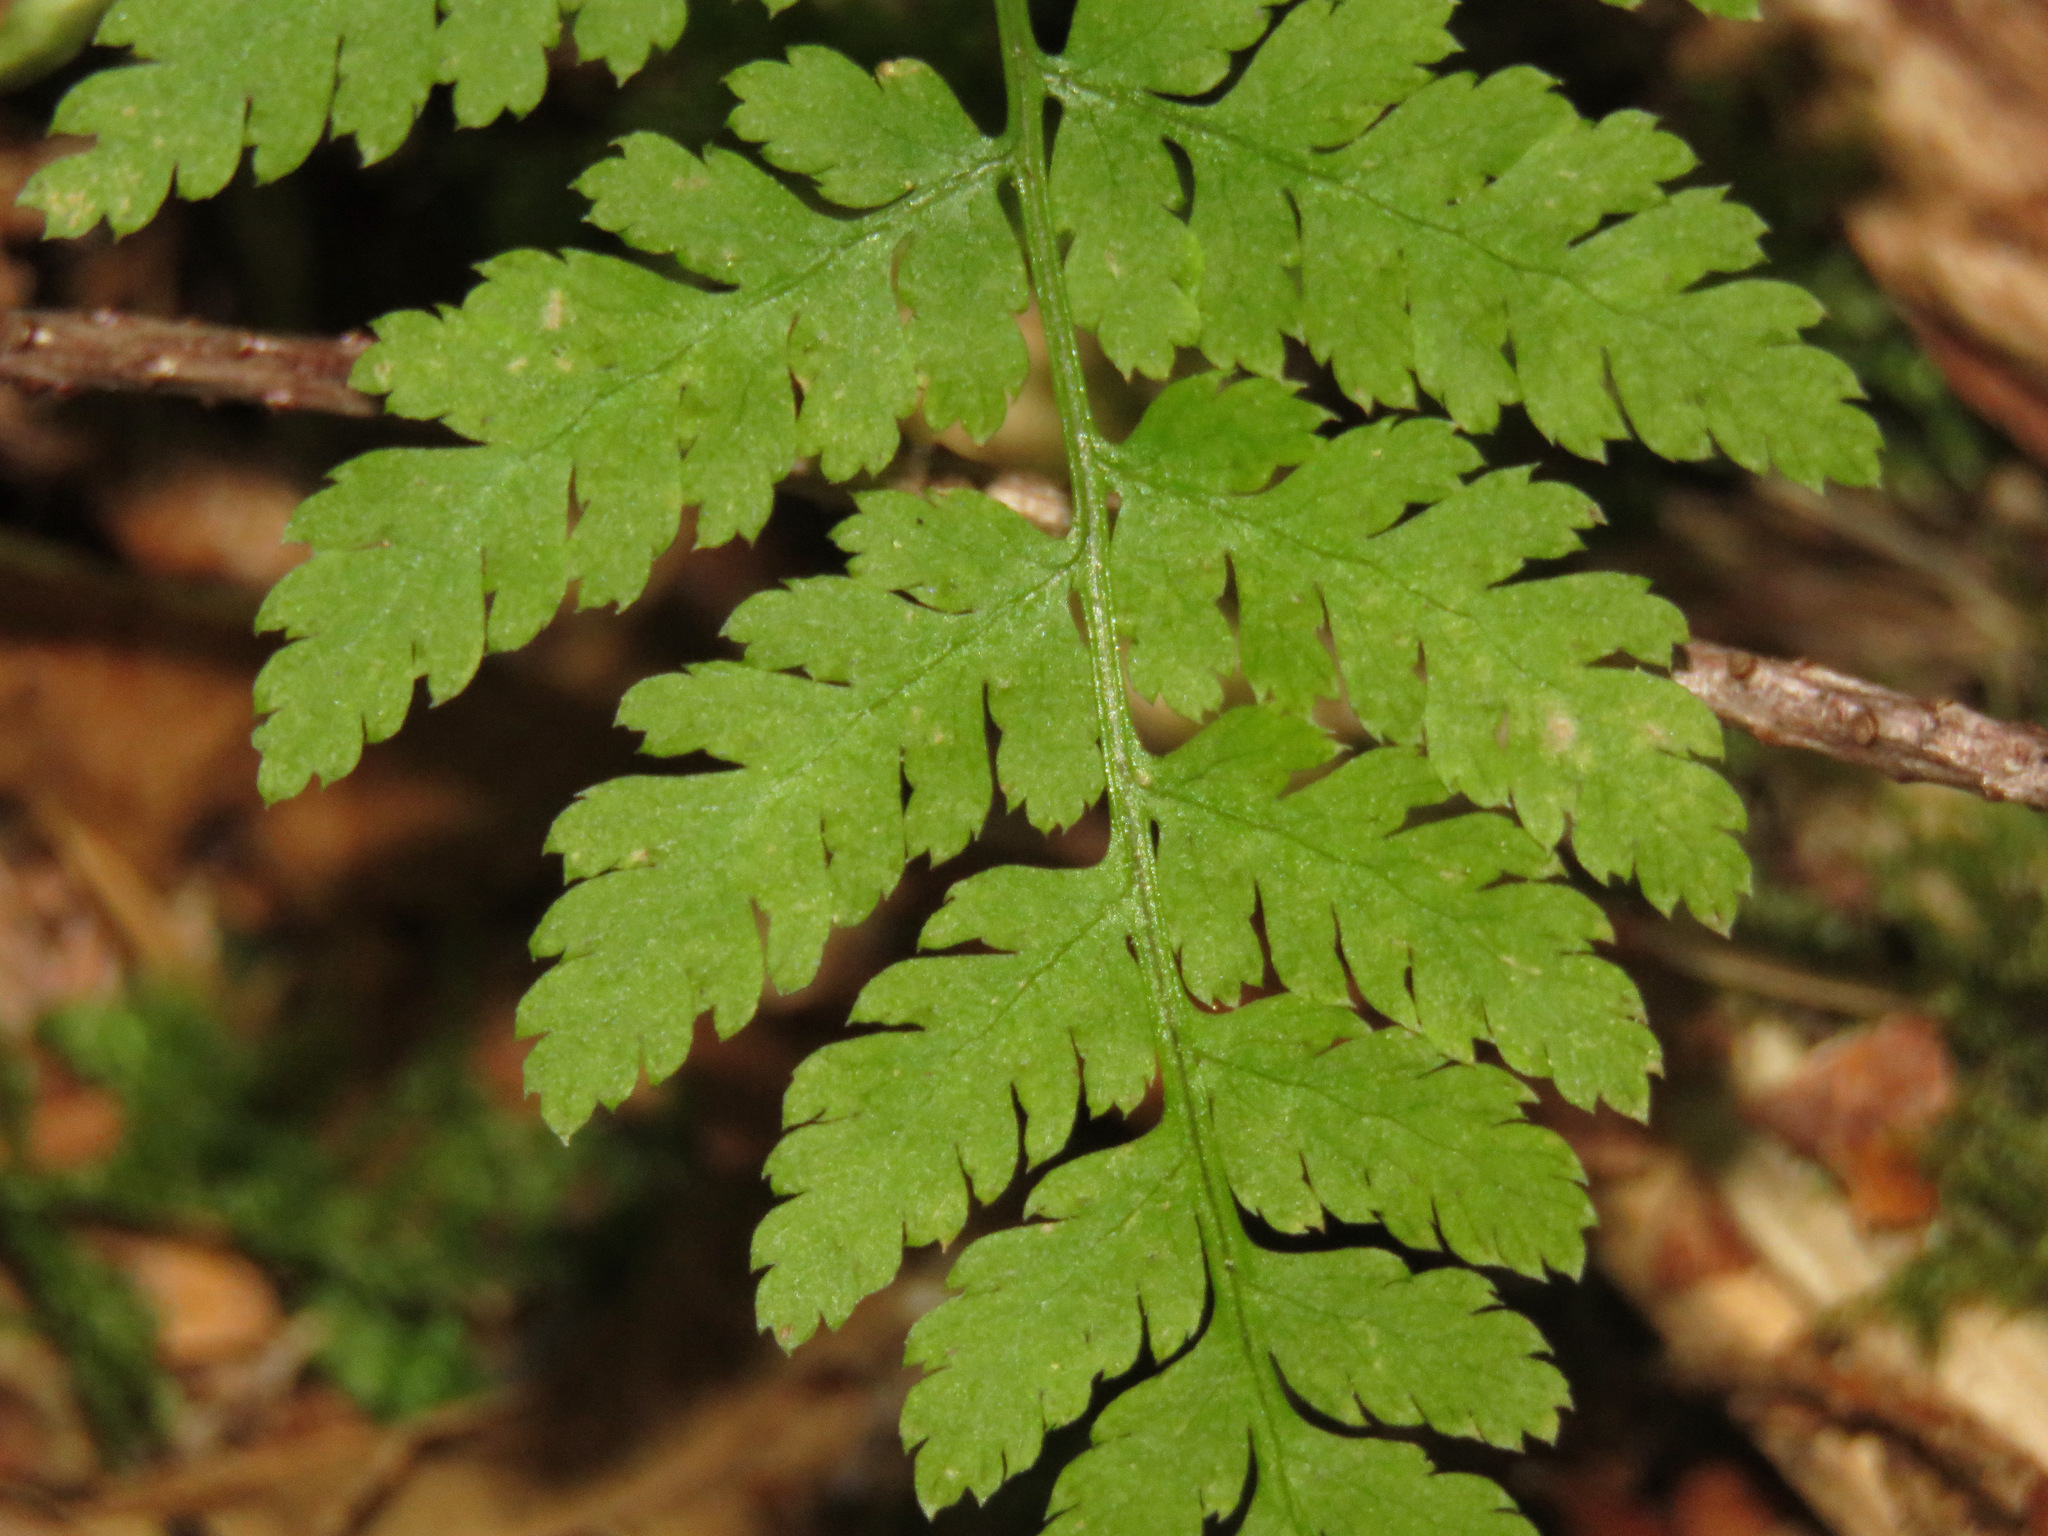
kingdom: Plantae
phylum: Tracheophyta
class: Polypodiopsida
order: Polypodiales
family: Dryopteridaceae
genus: Dryopteris
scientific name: Dryopteris expansa
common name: Northern buckler fern
